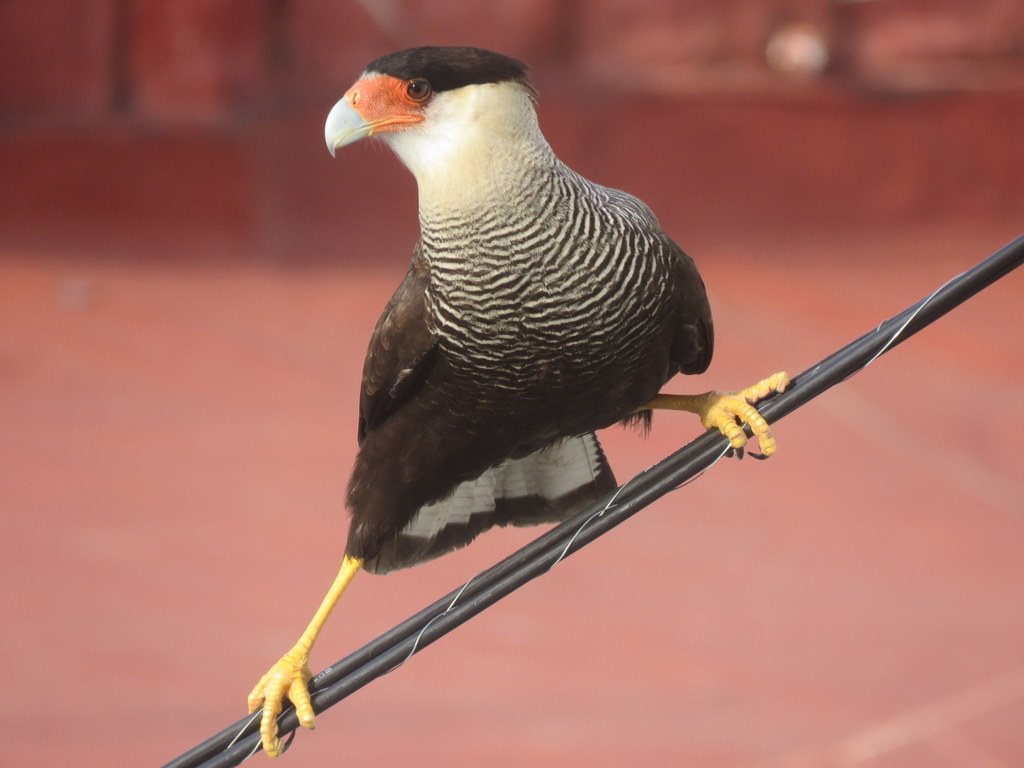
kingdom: Animalia
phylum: Chordata
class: Aves
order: Falconiformes
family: Falconidae
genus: Caracara
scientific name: Caracara plancus
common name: Southern caracara
